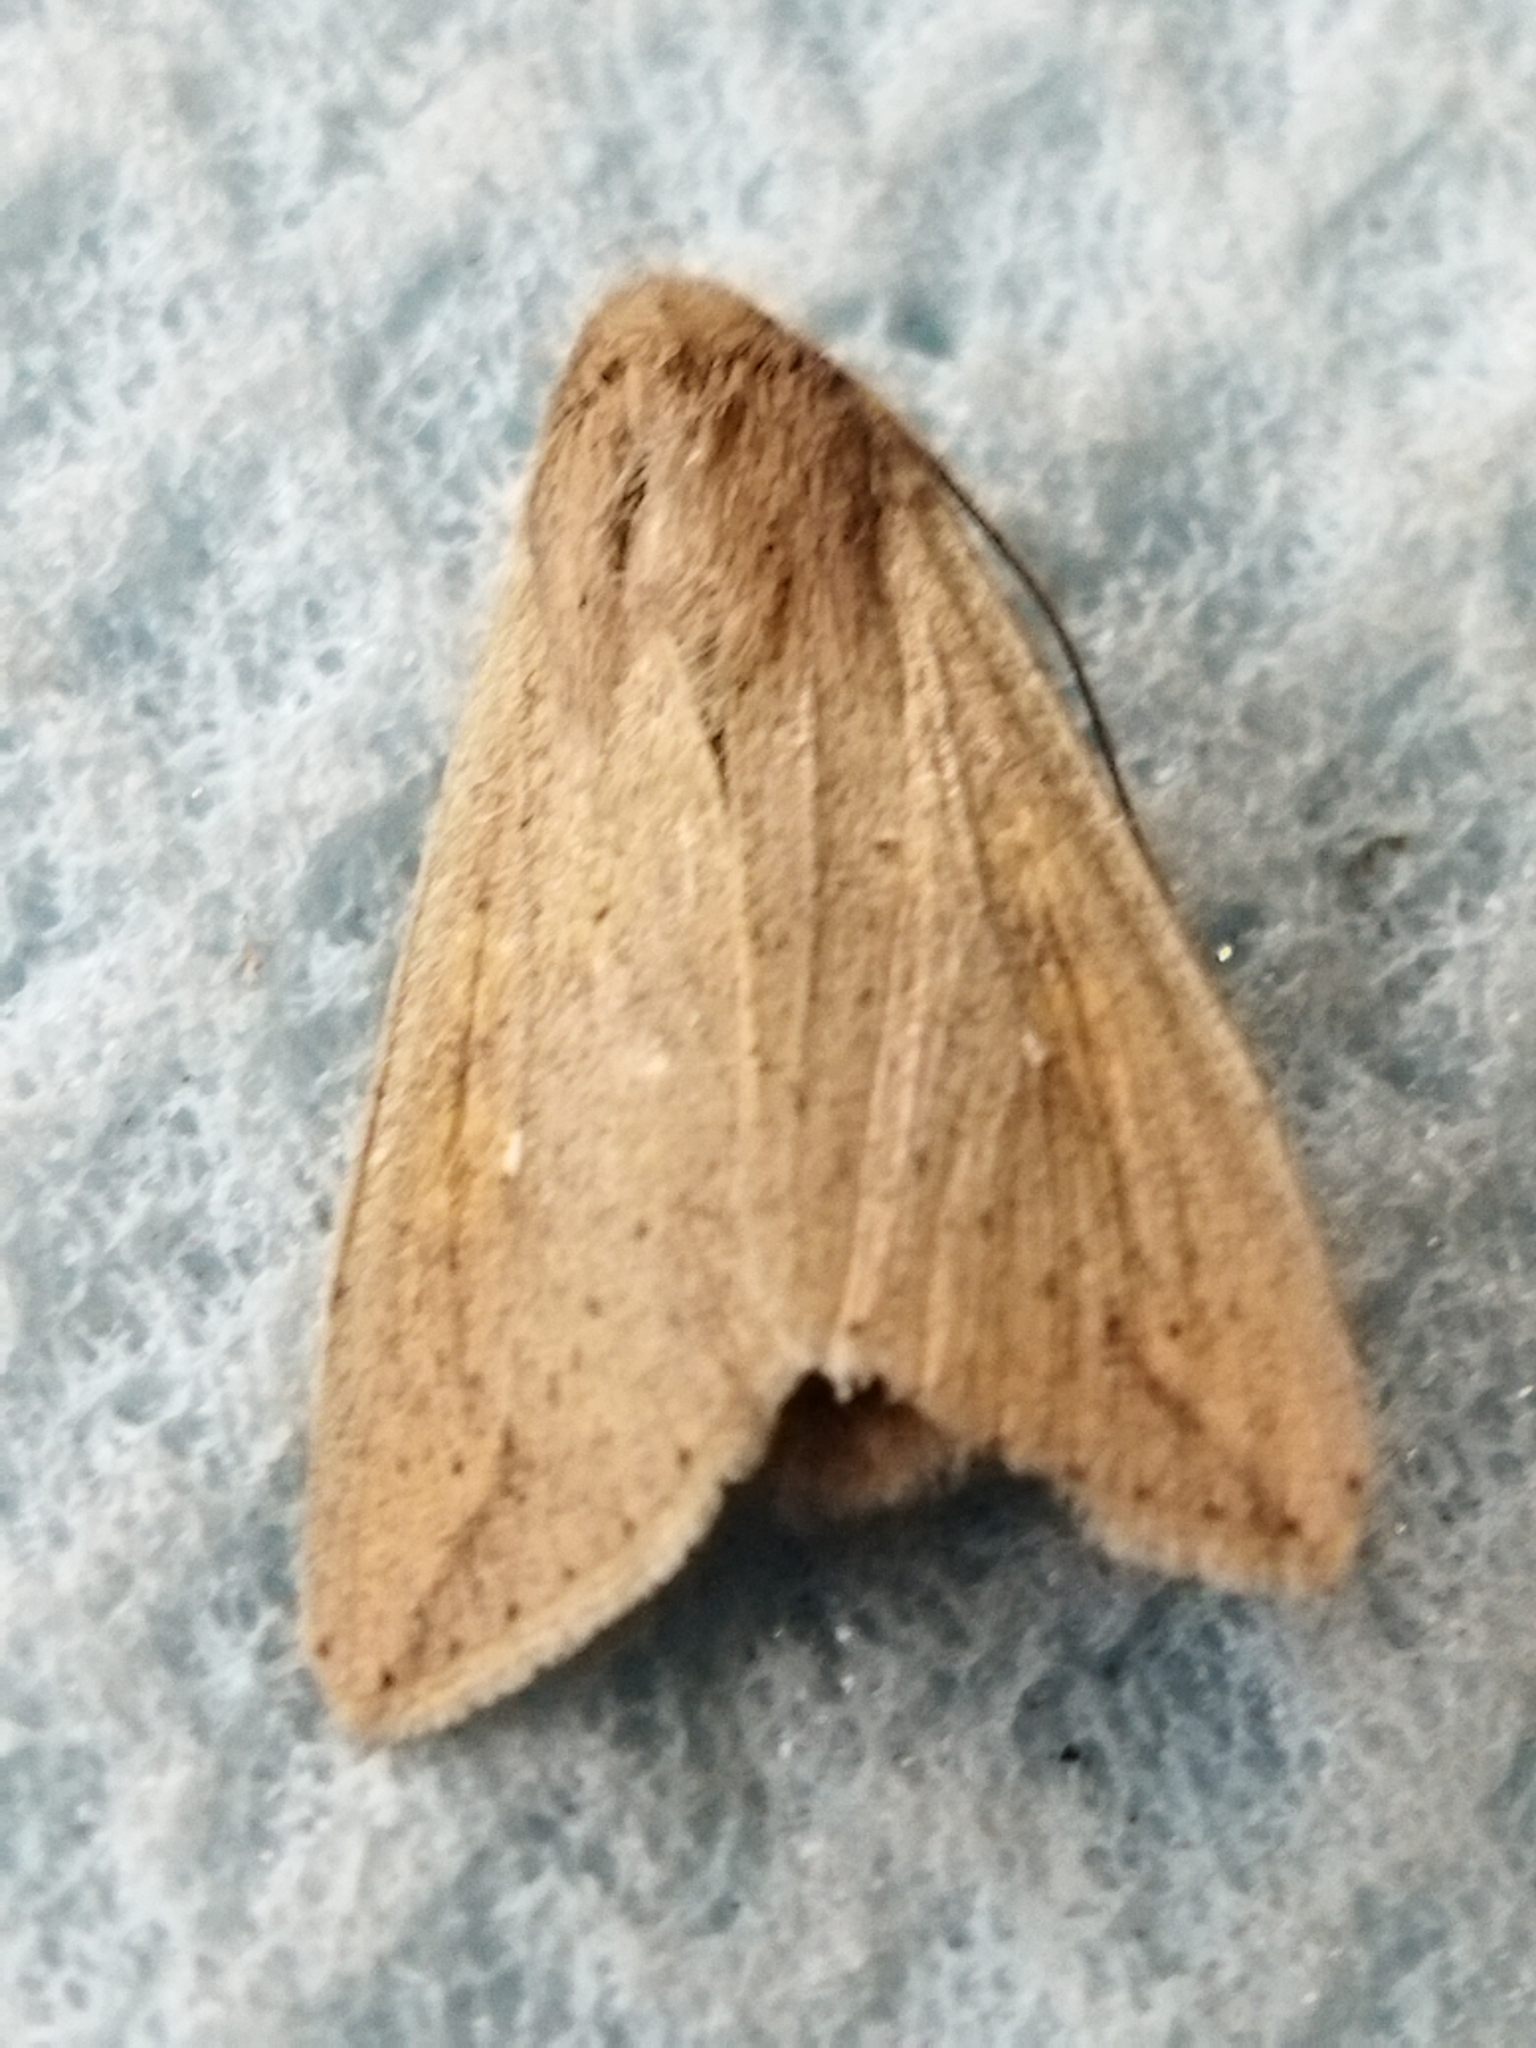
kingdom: Animalia
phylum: Arthropoda
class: Insecta
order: Lepidoptera
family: Noctuidae
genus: Mythimna
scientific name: Mythimna unipuncta
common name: White-speck
